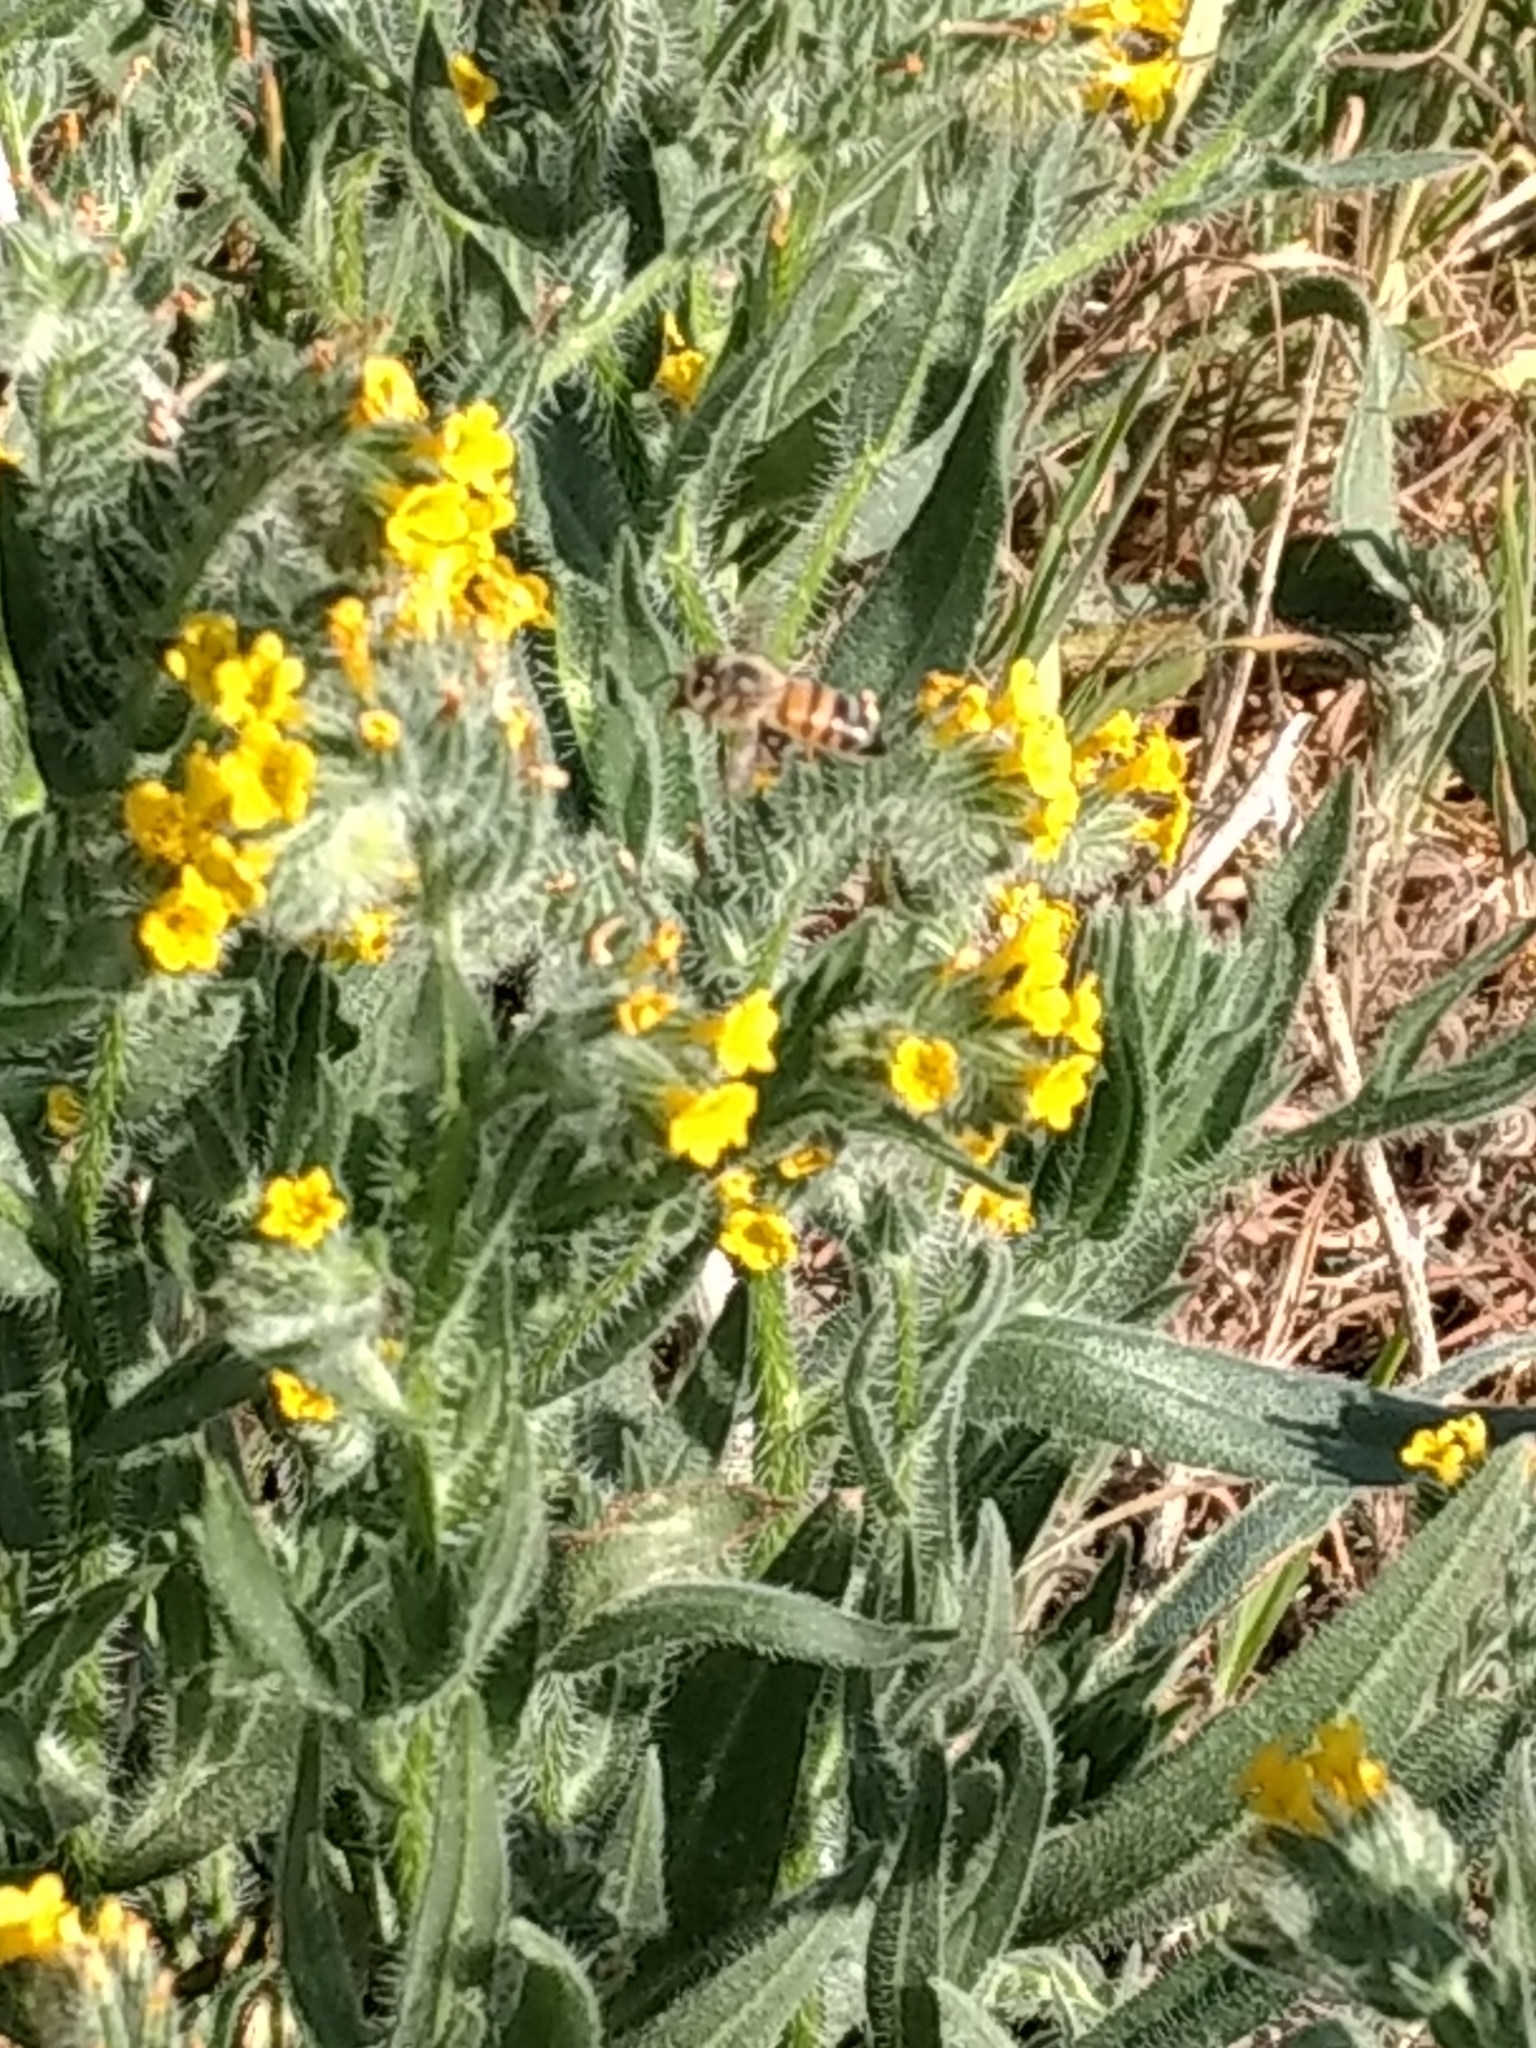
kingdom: Animalia
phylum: Arthropoda
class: Insecta
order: Hymenoptera
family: Apidae
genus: Apis
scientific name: Apis mellifera
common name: Honey bee
